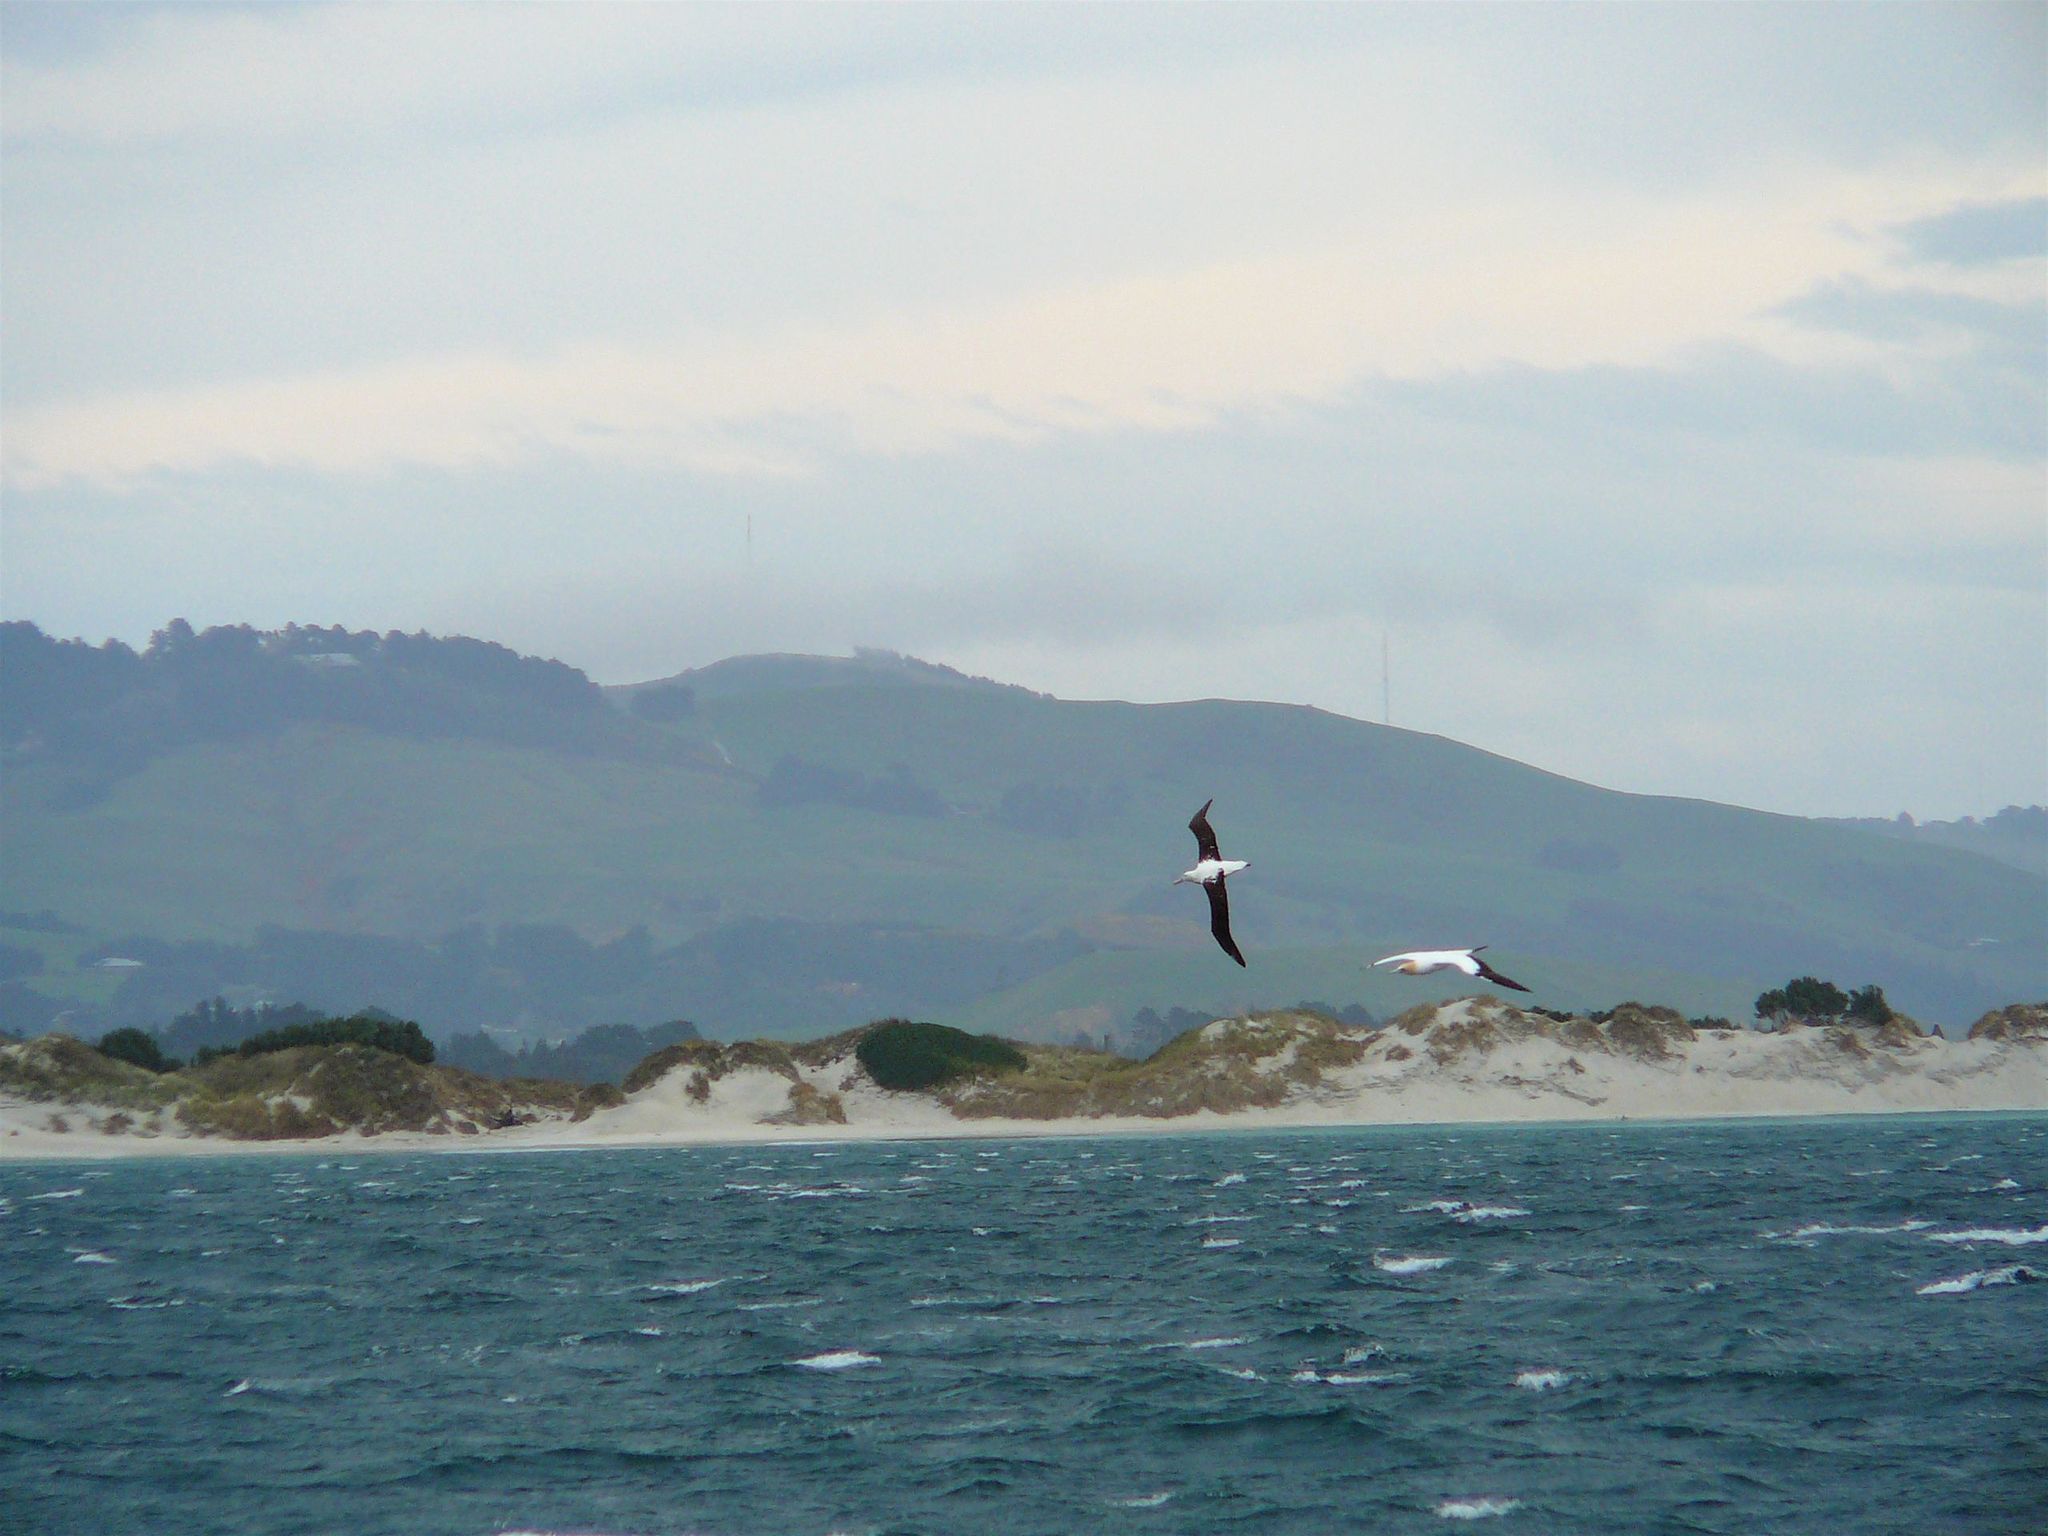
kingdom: Animalia
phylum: Chordata
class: Aves
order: Procellariiformes
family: Diomedeidae
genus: Diomedea
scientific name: Diomedea sanfordi
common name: Northern royal albatross
